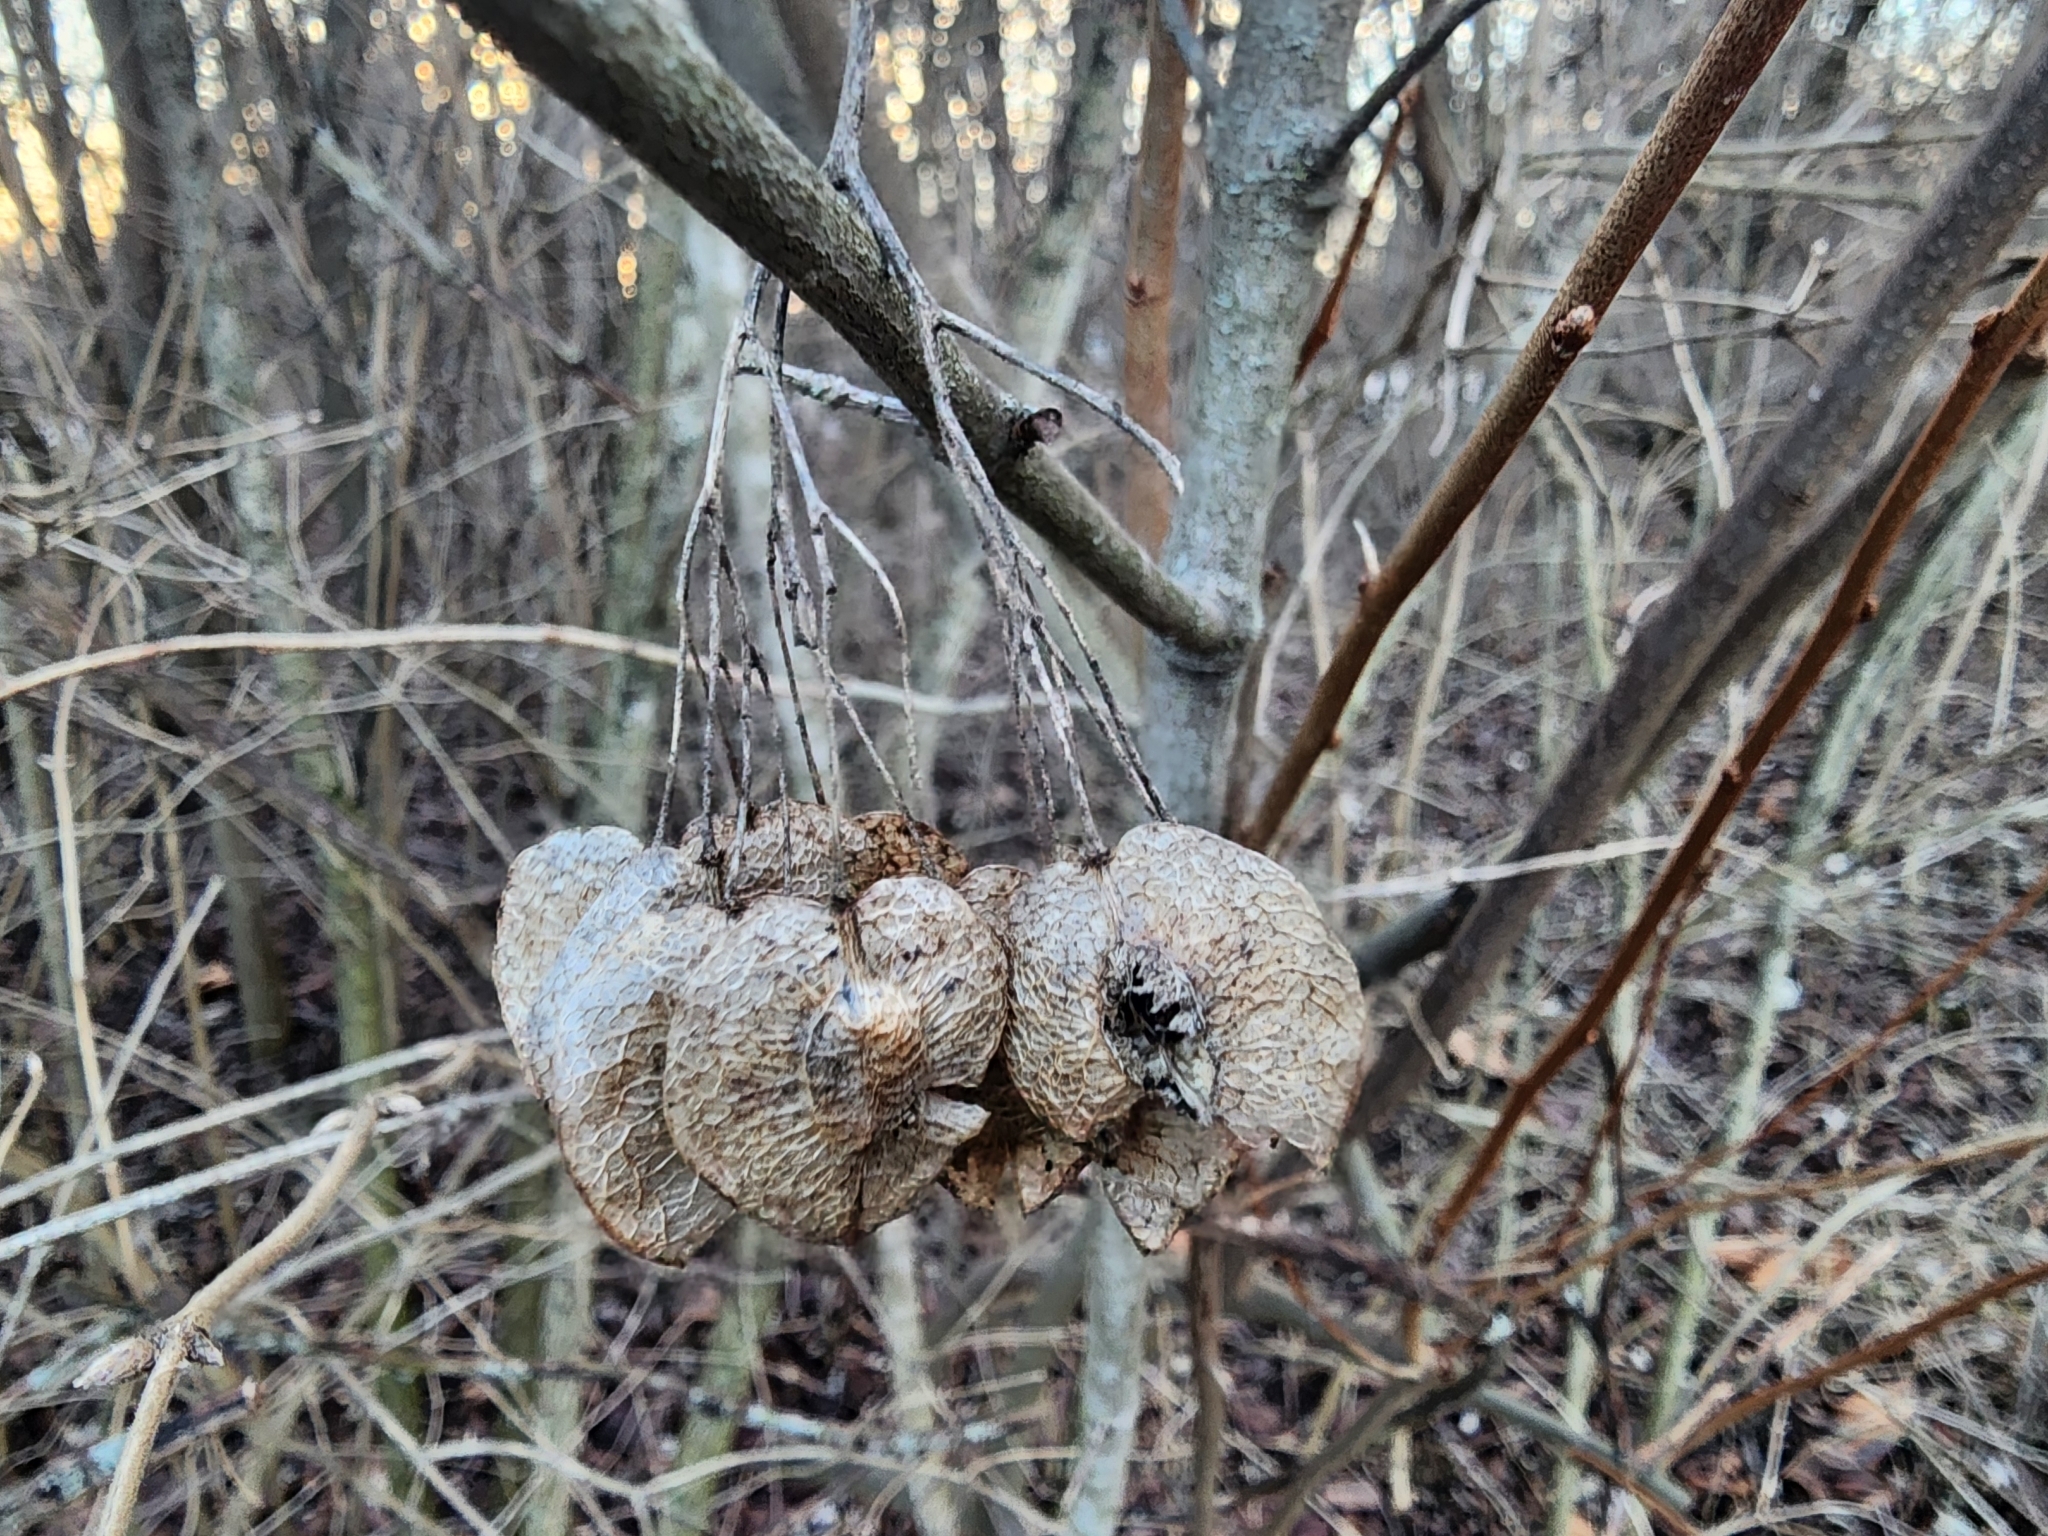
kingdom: Plantae
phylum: Tracheophyta
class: Magnoliopsida
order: Sapindales
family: Rutaceae
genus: Ptelea
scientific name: Ptelea trifoliata
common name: Common hop-tree
